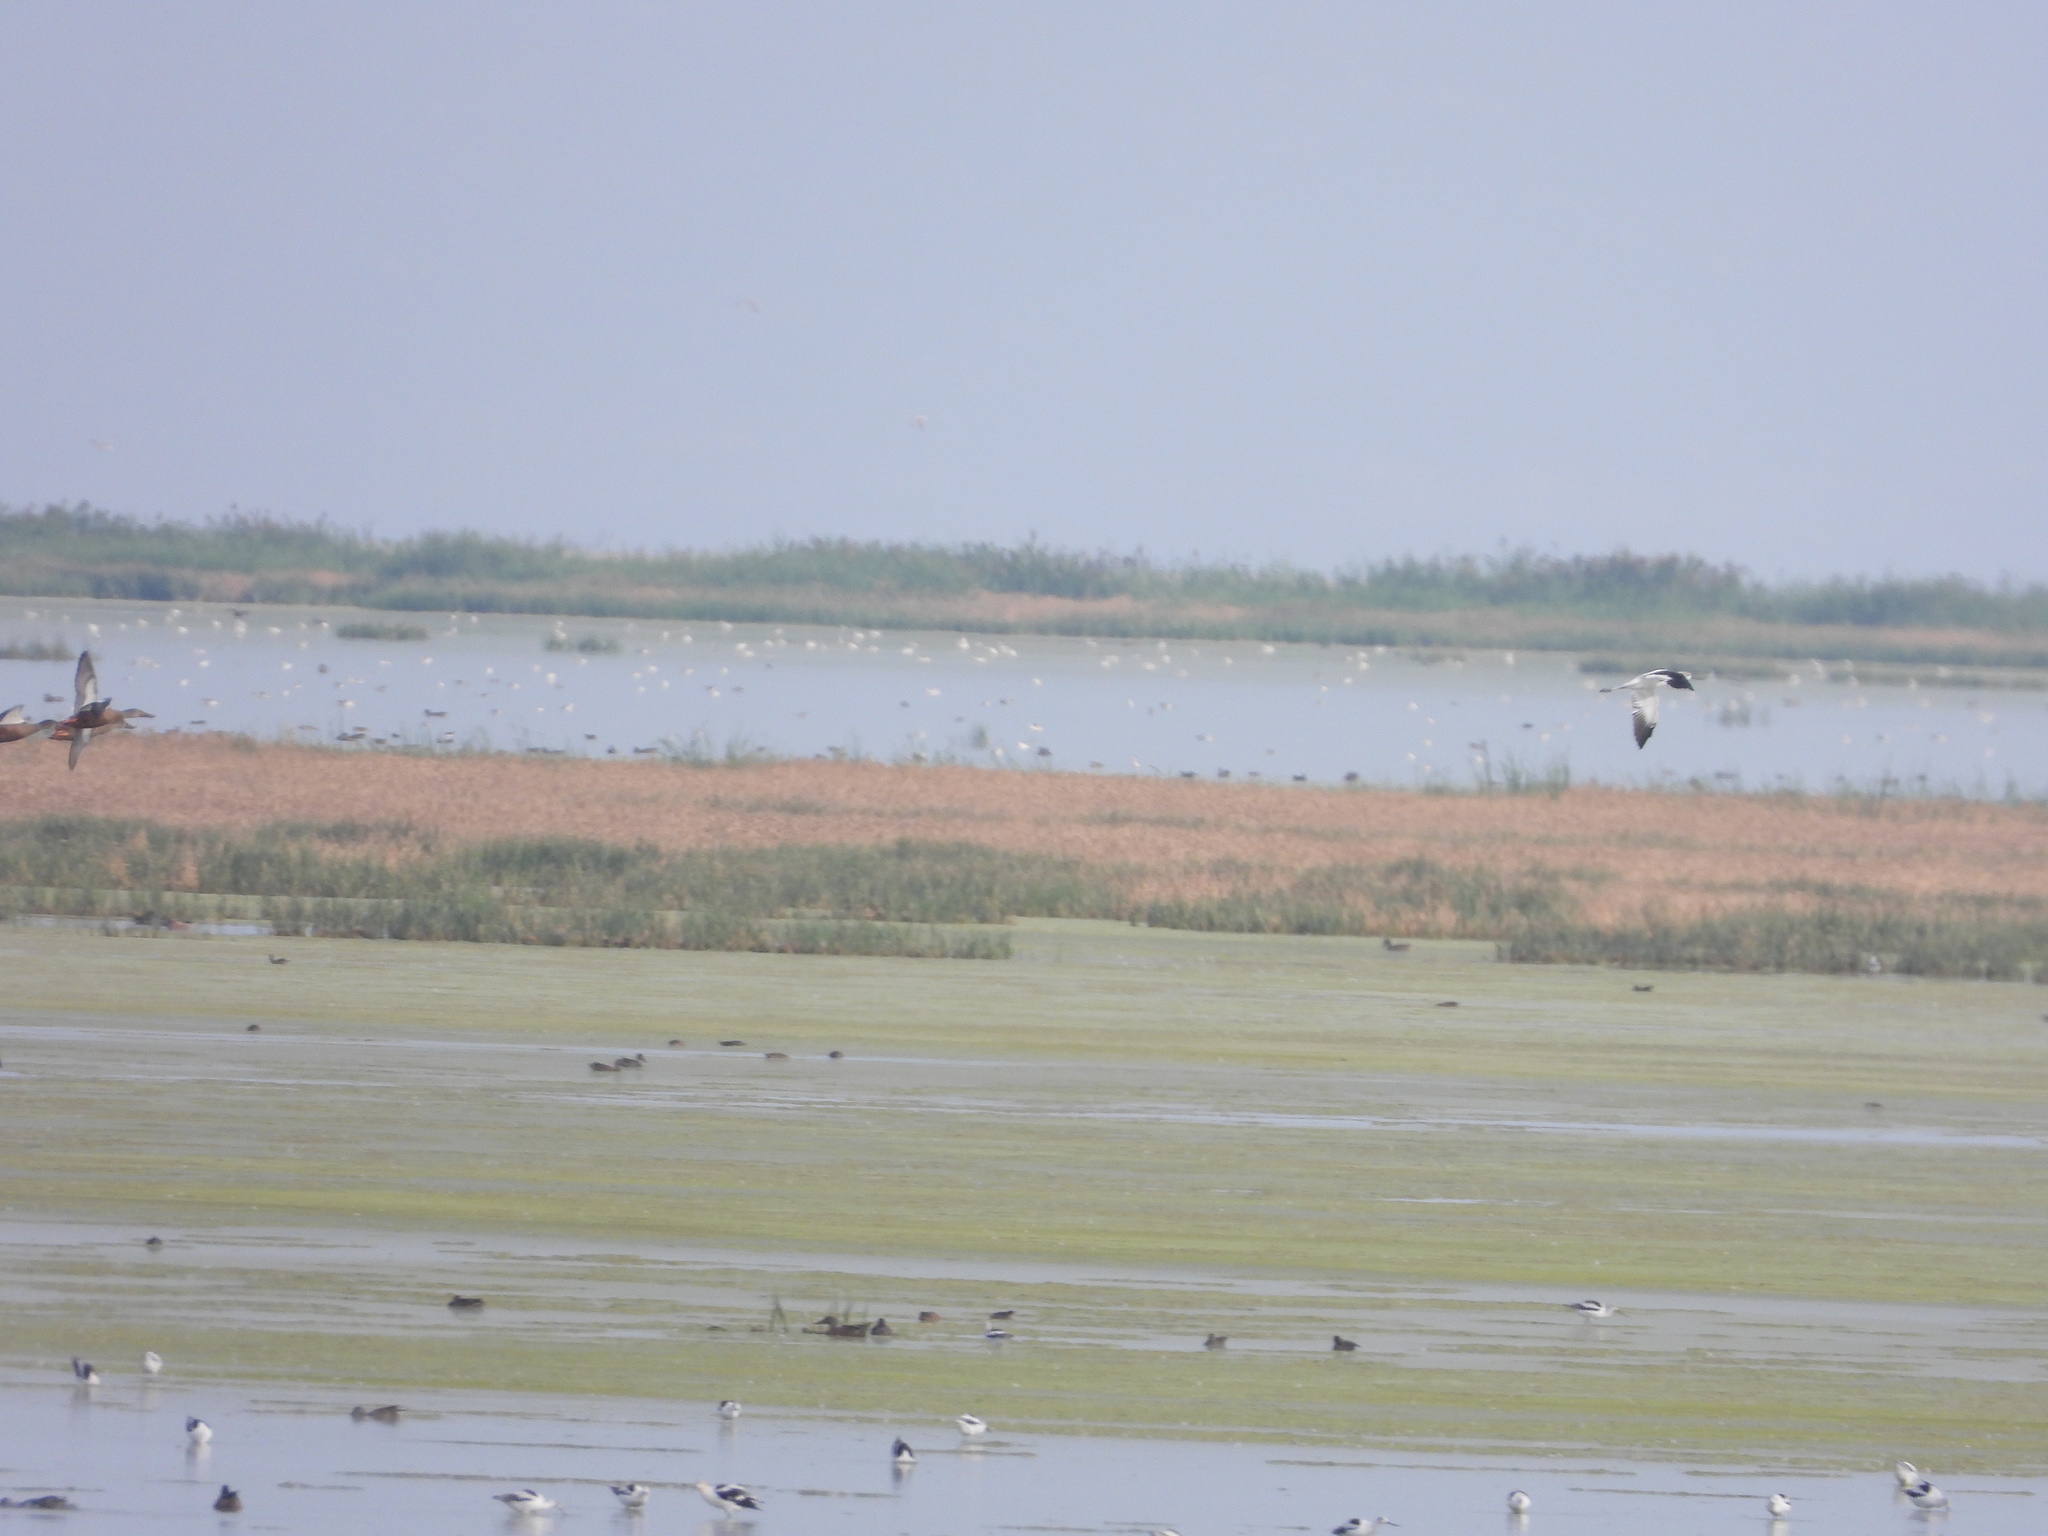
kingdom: Animalia
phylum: Chordata
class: Aves
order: Charadriiformes
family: Recurvirostridae
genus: Recurvirostra
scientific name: Recurvirostra americana
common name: American avocet
